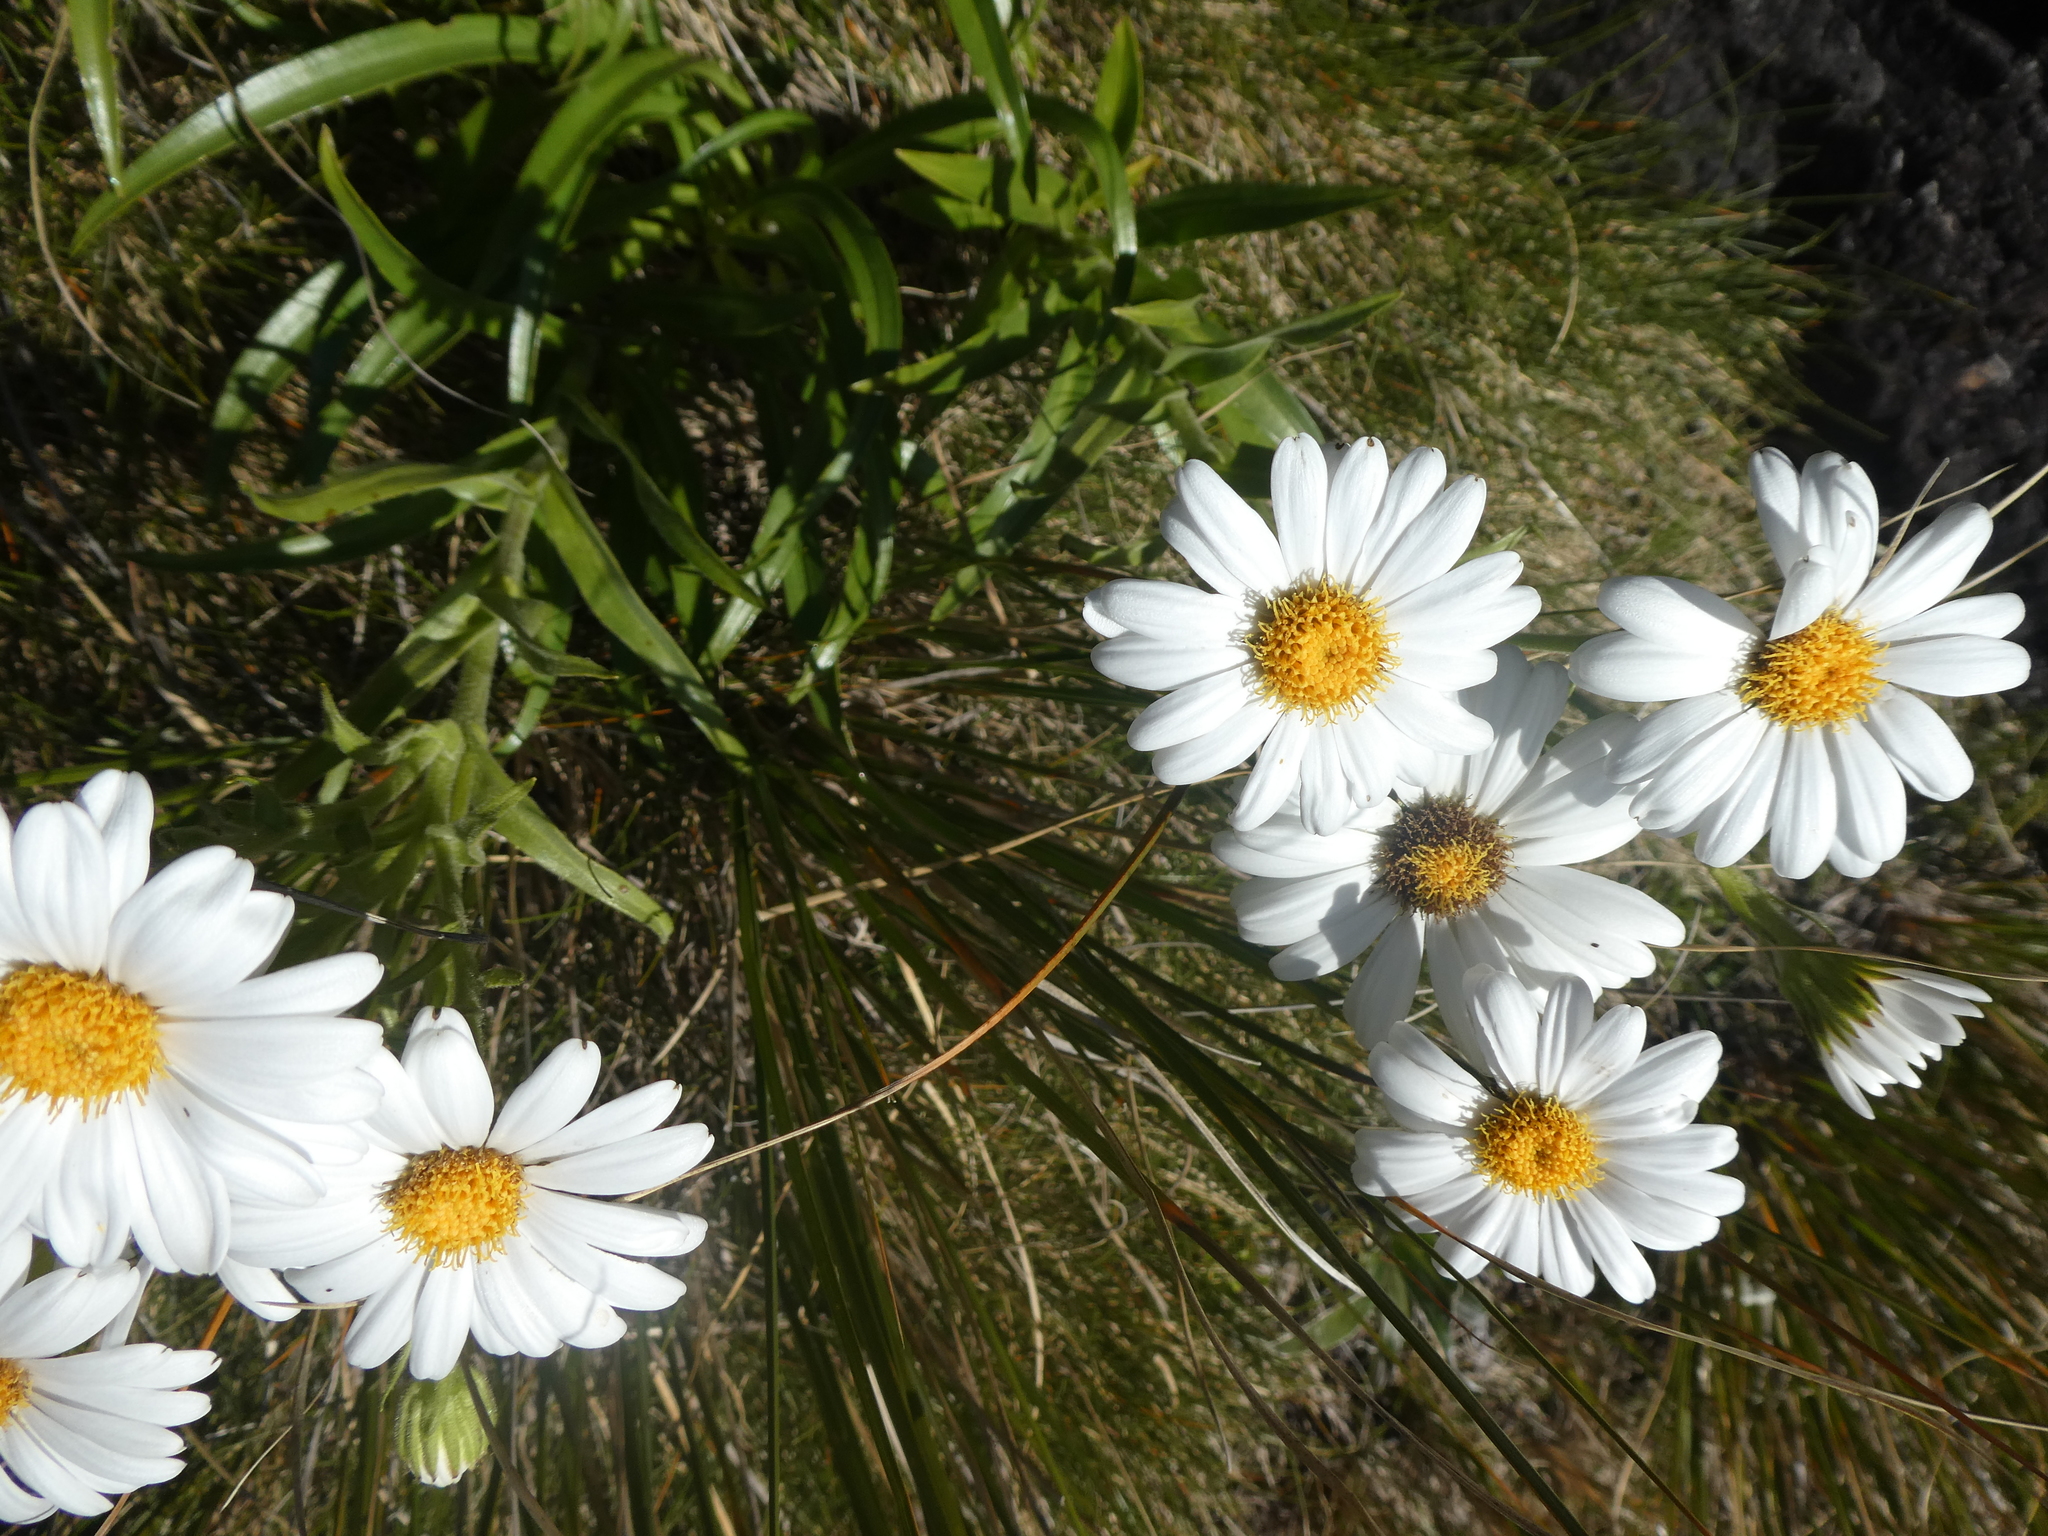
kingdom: Plantae
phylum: Tracheophyta
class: Magnoliopsida
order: Asterales
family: Asteraceae
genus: Dolichoglottis
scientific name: Dolichoglottis scorzoneroides
